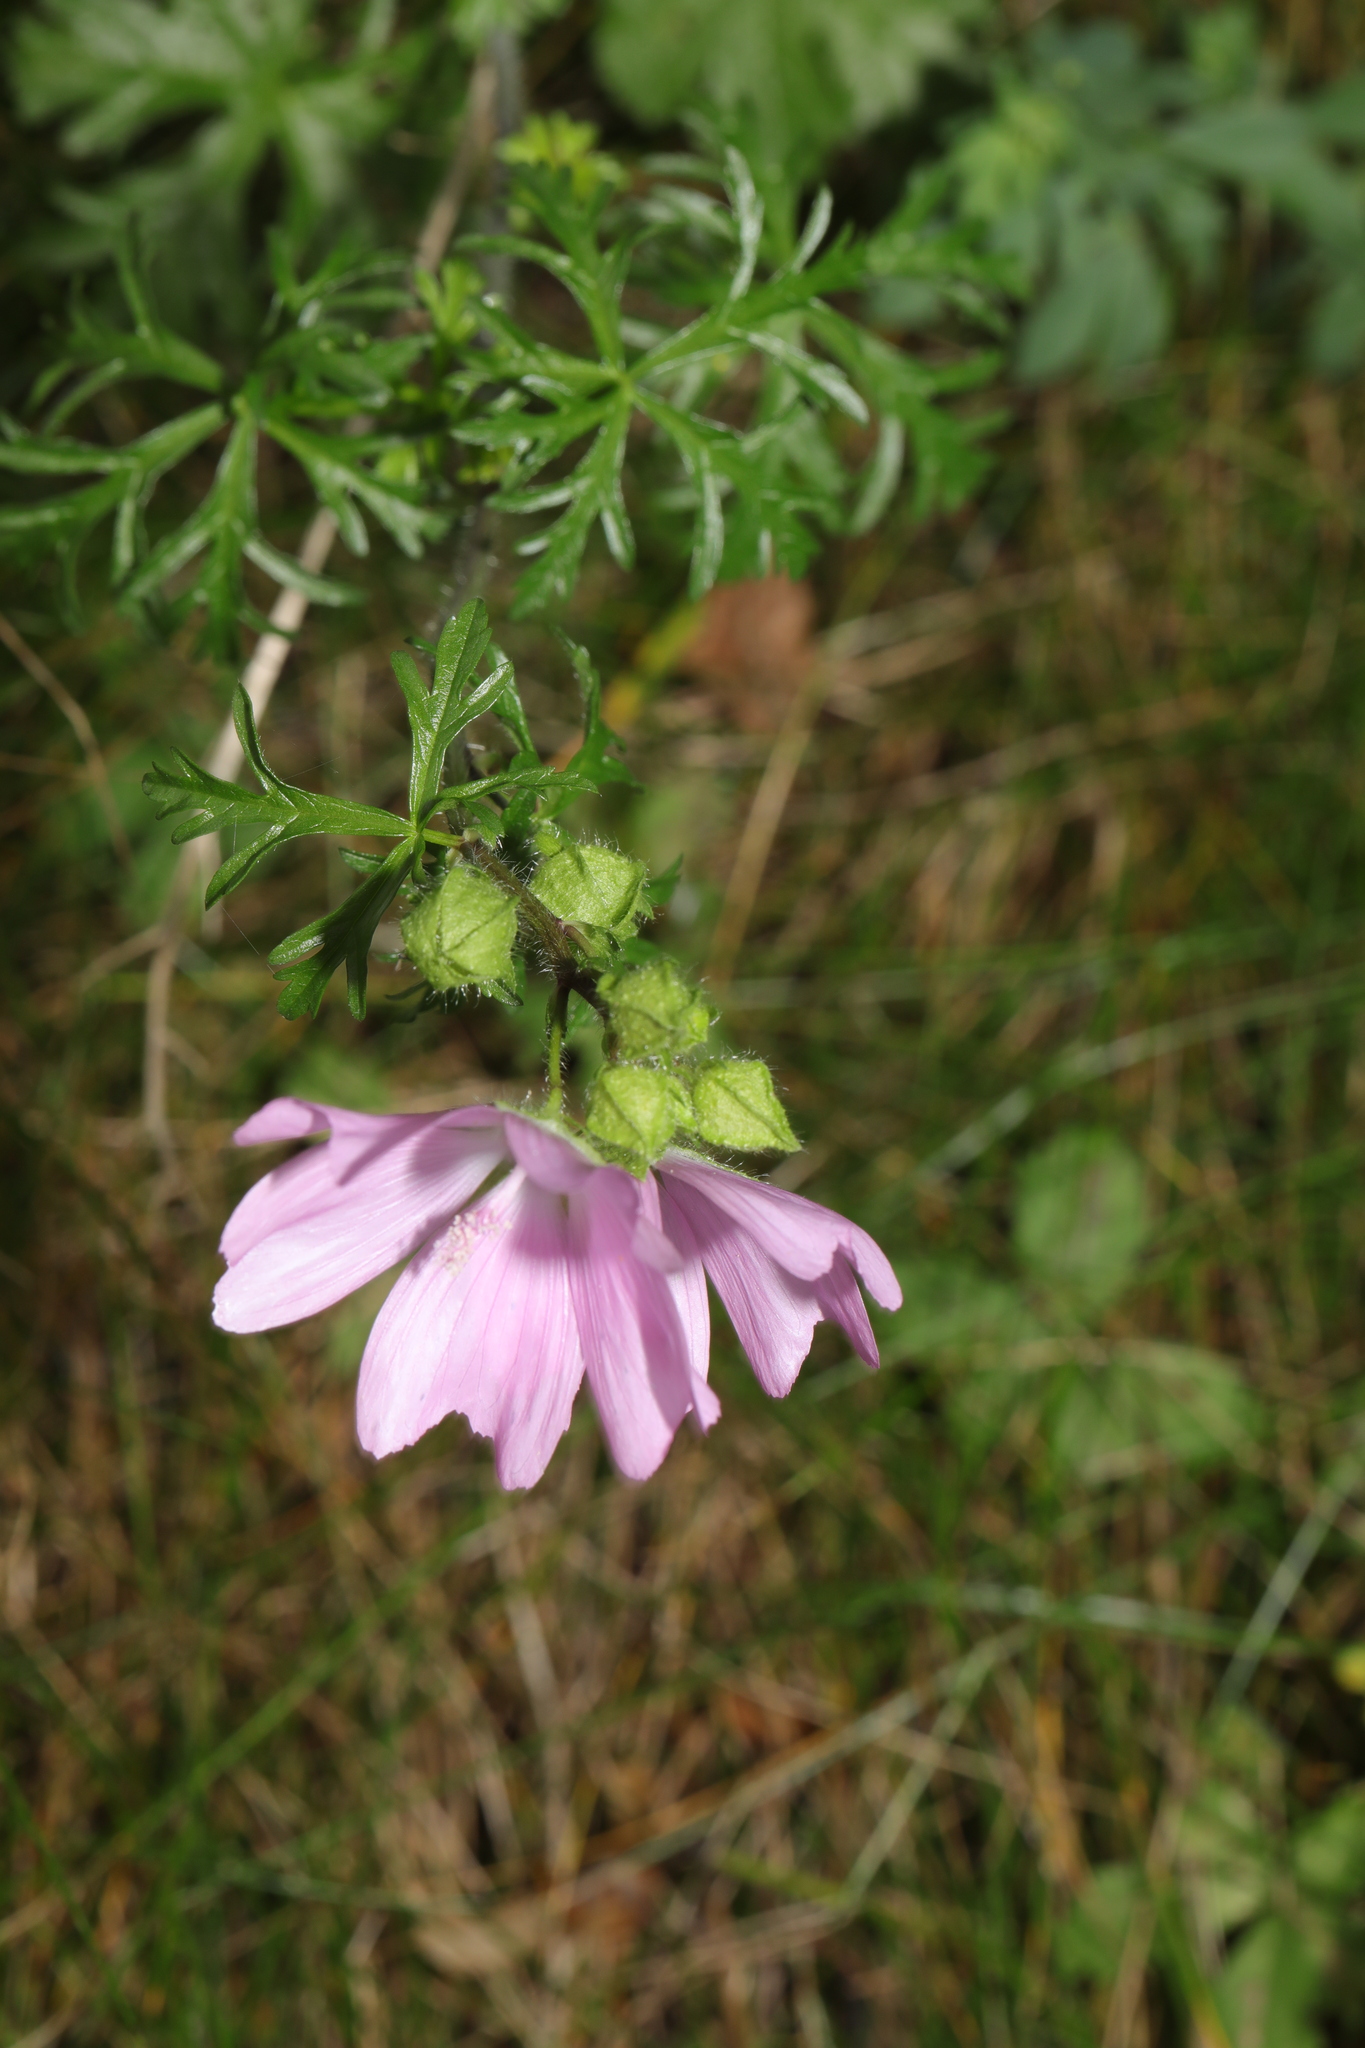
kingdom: Plantae
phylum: Tracheophyta
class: Magnoliopsida
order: Malvales
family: Malvaceae
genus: Malva
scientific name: Malva moschata
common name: Musk mallow
